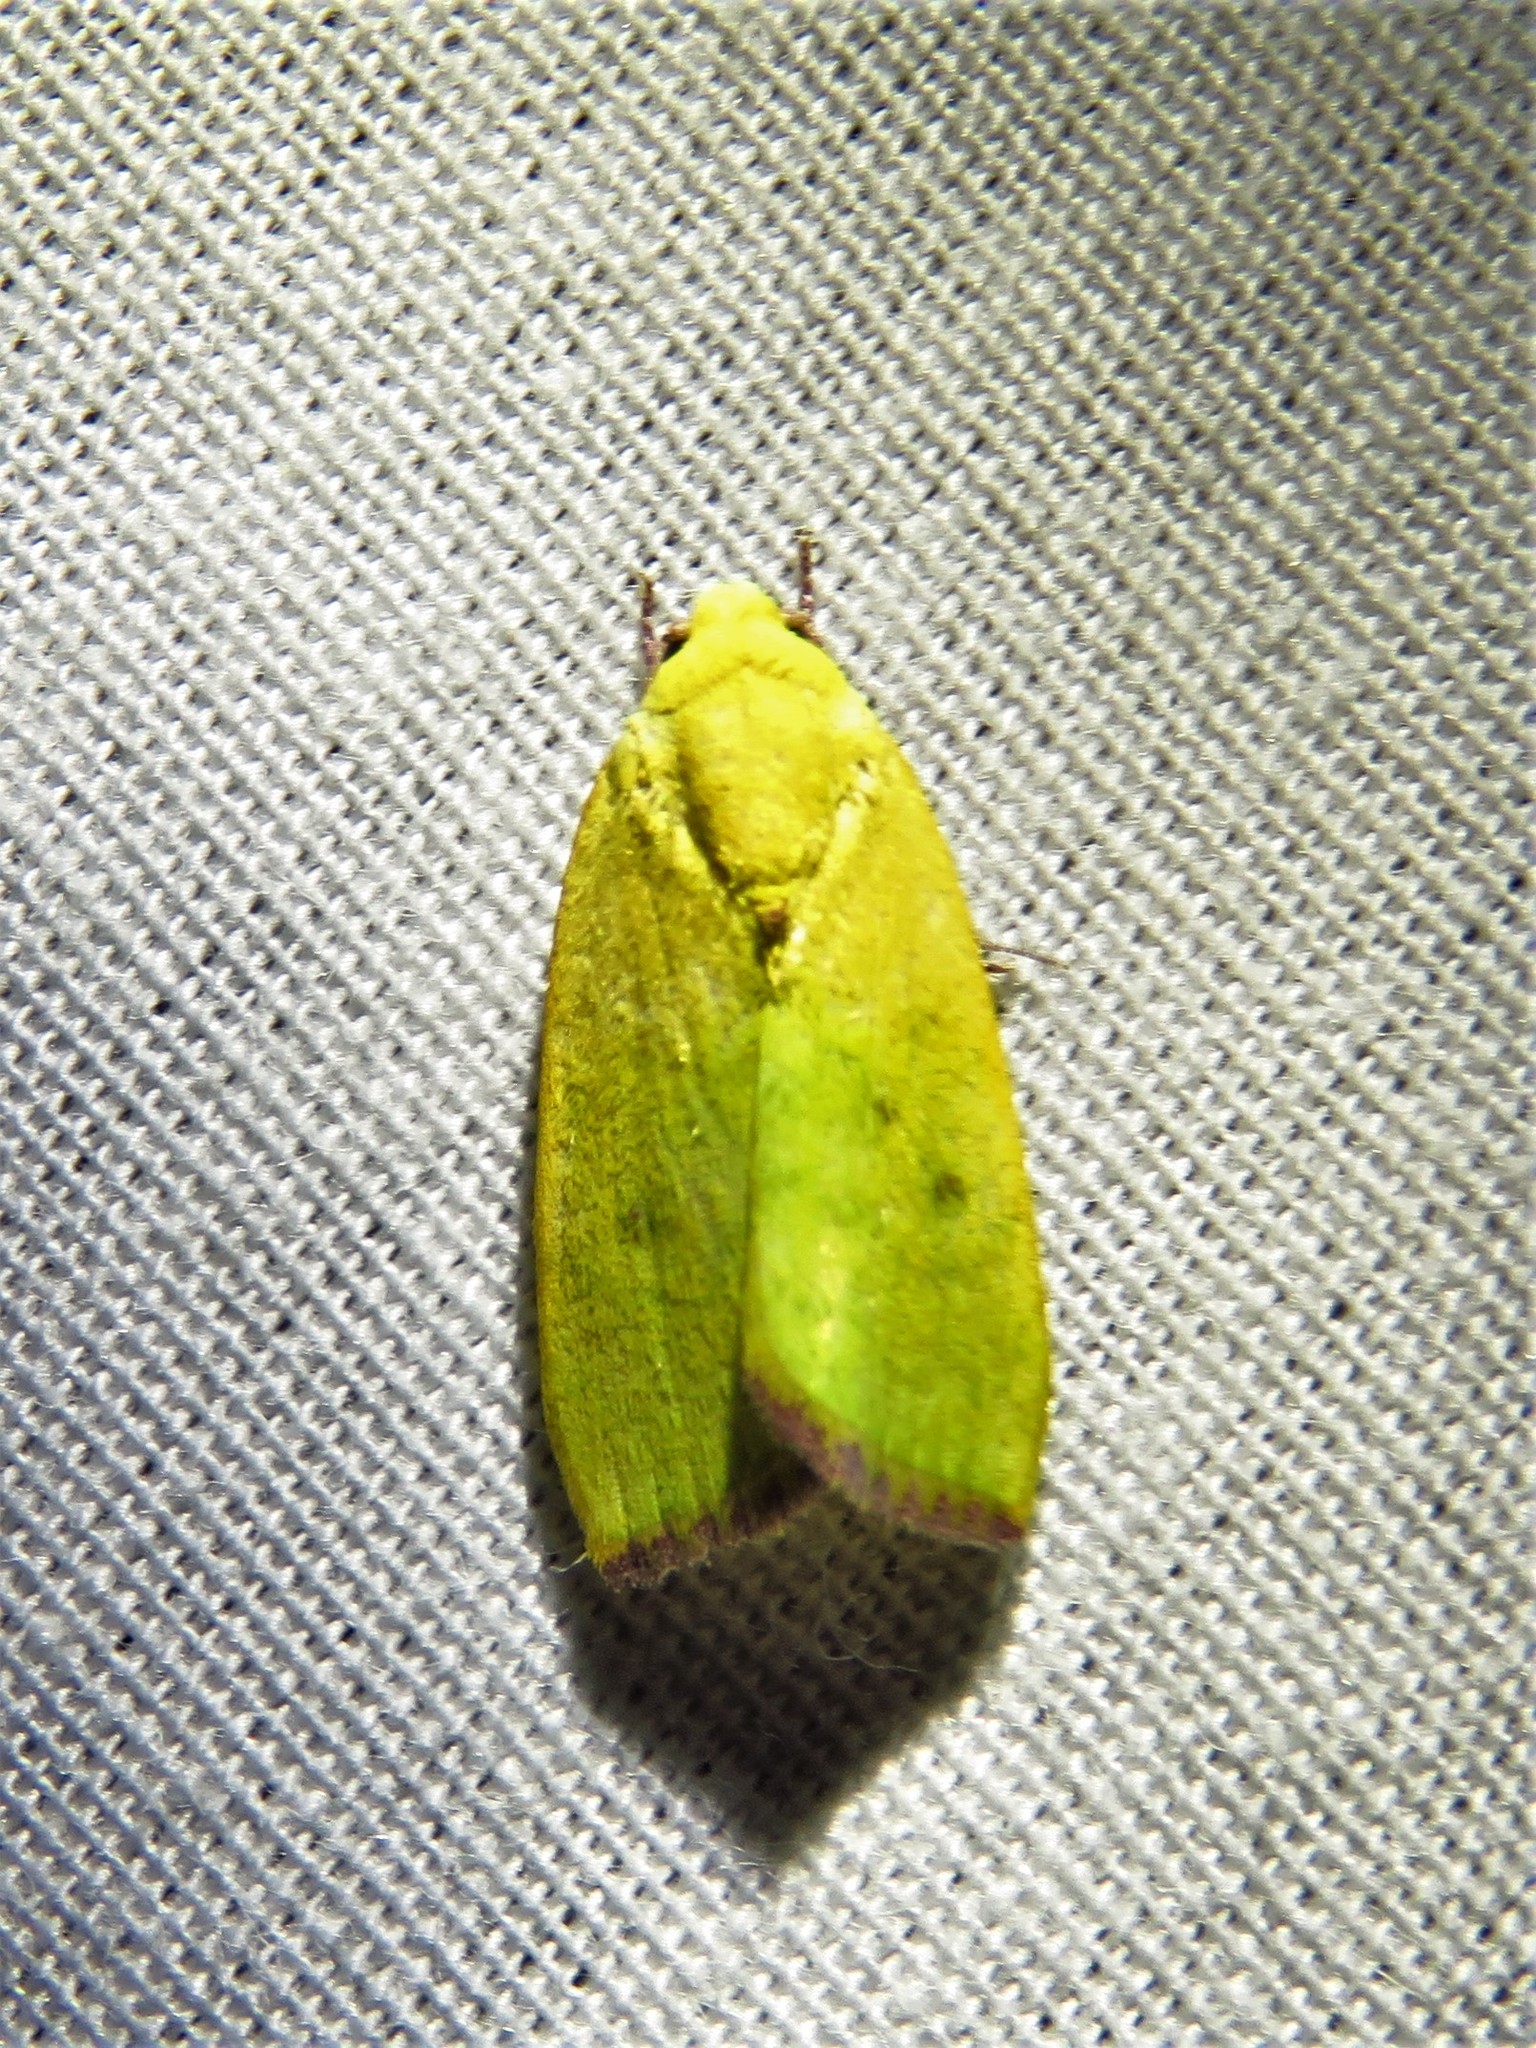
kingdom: Animalia
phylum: Arthropoda
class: Insecta
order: Lepidoptera
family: Nolidae
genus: Earias
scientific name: Earias biplaga
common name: Spiny bollworm
